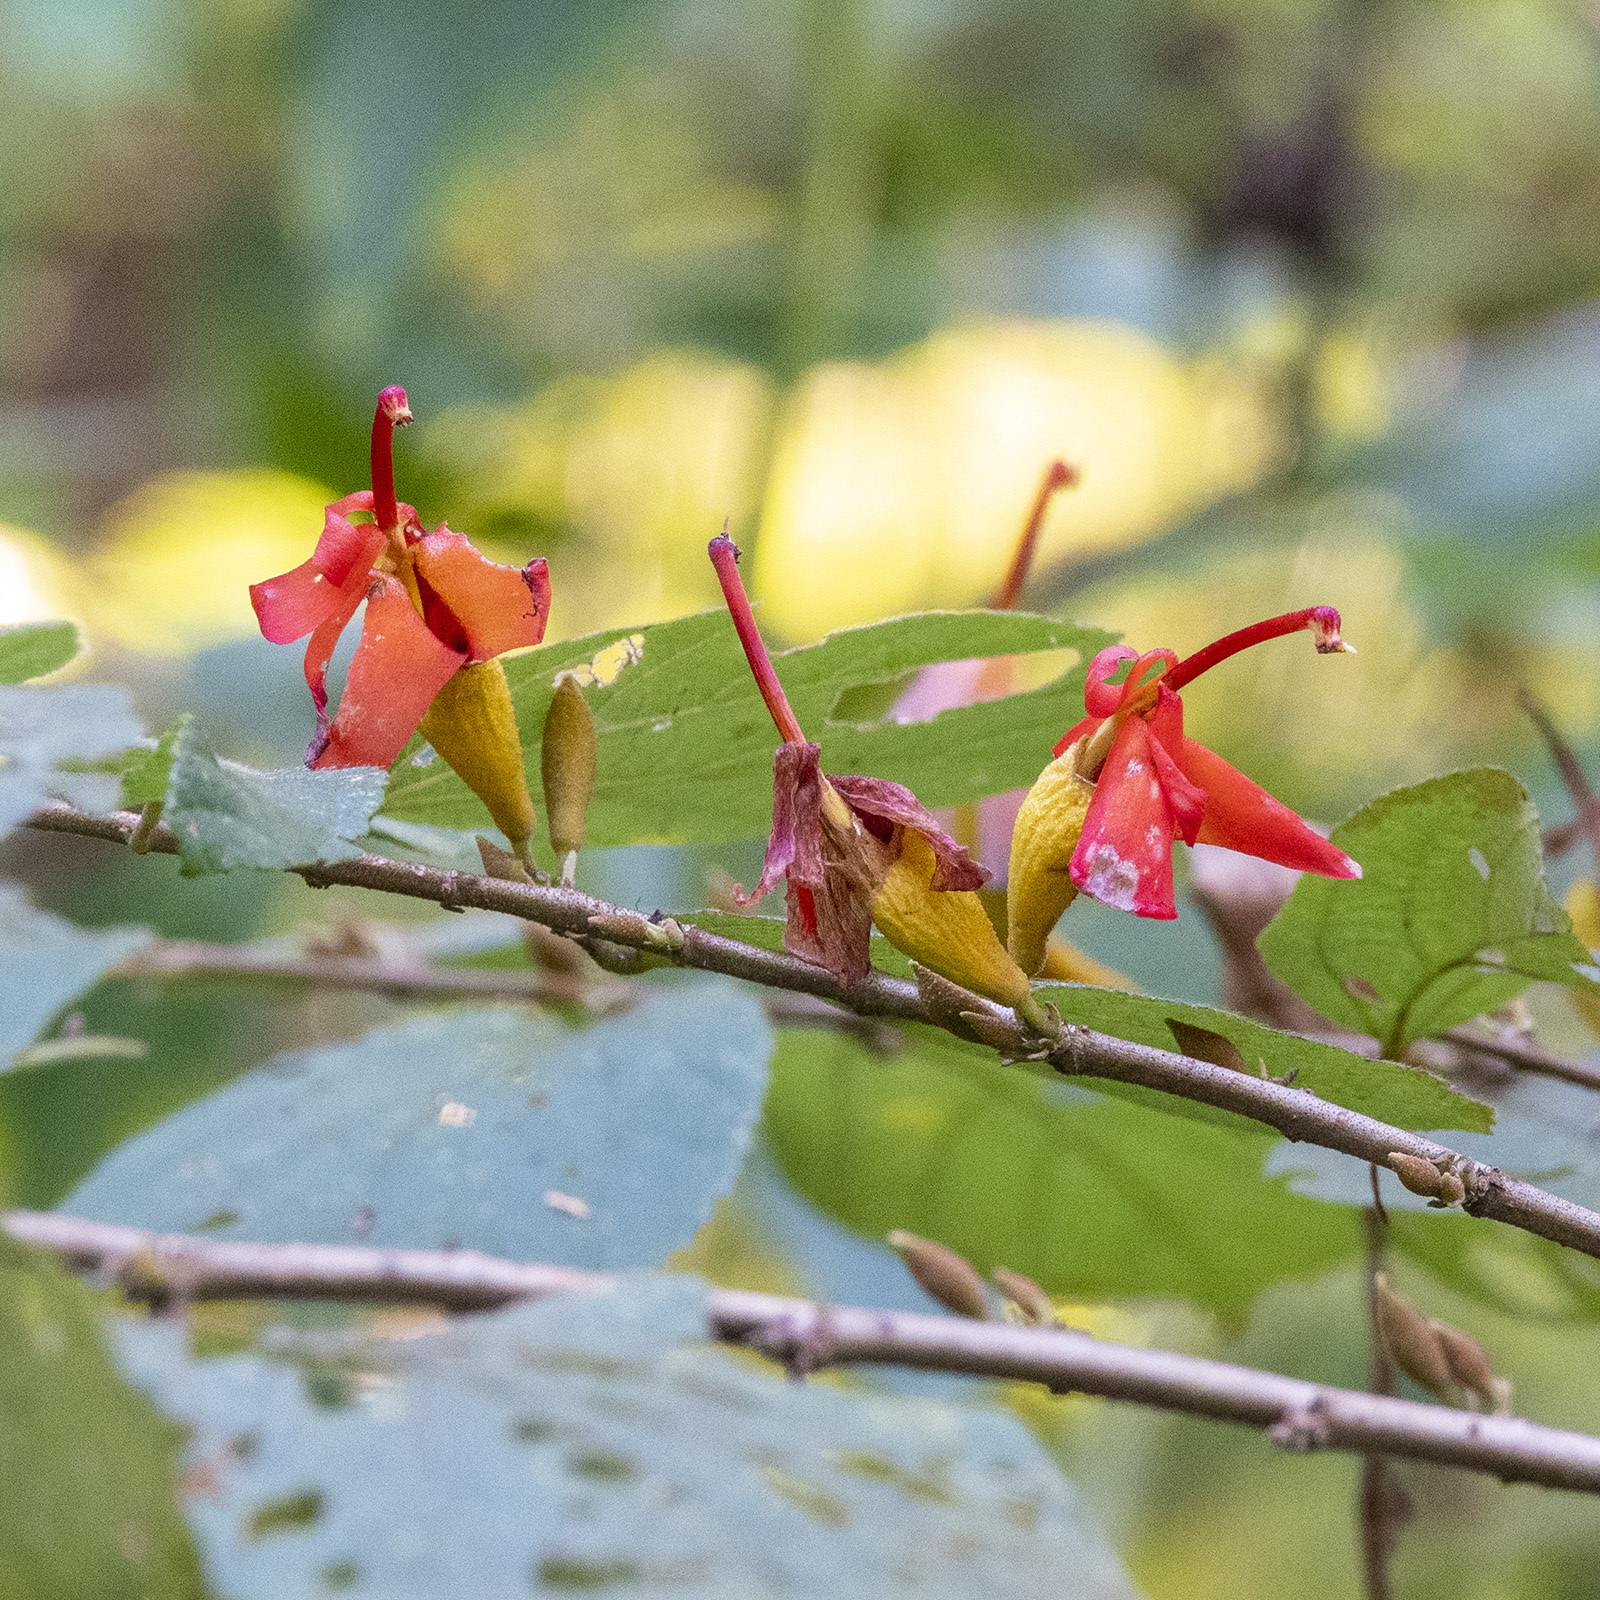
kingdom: Plantae
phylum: Tracheophyta
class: Magnoliopsida
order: Malvales
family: Malvaceae
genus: Helicteres
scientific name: Helicteres isora
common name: East indian screwtree
